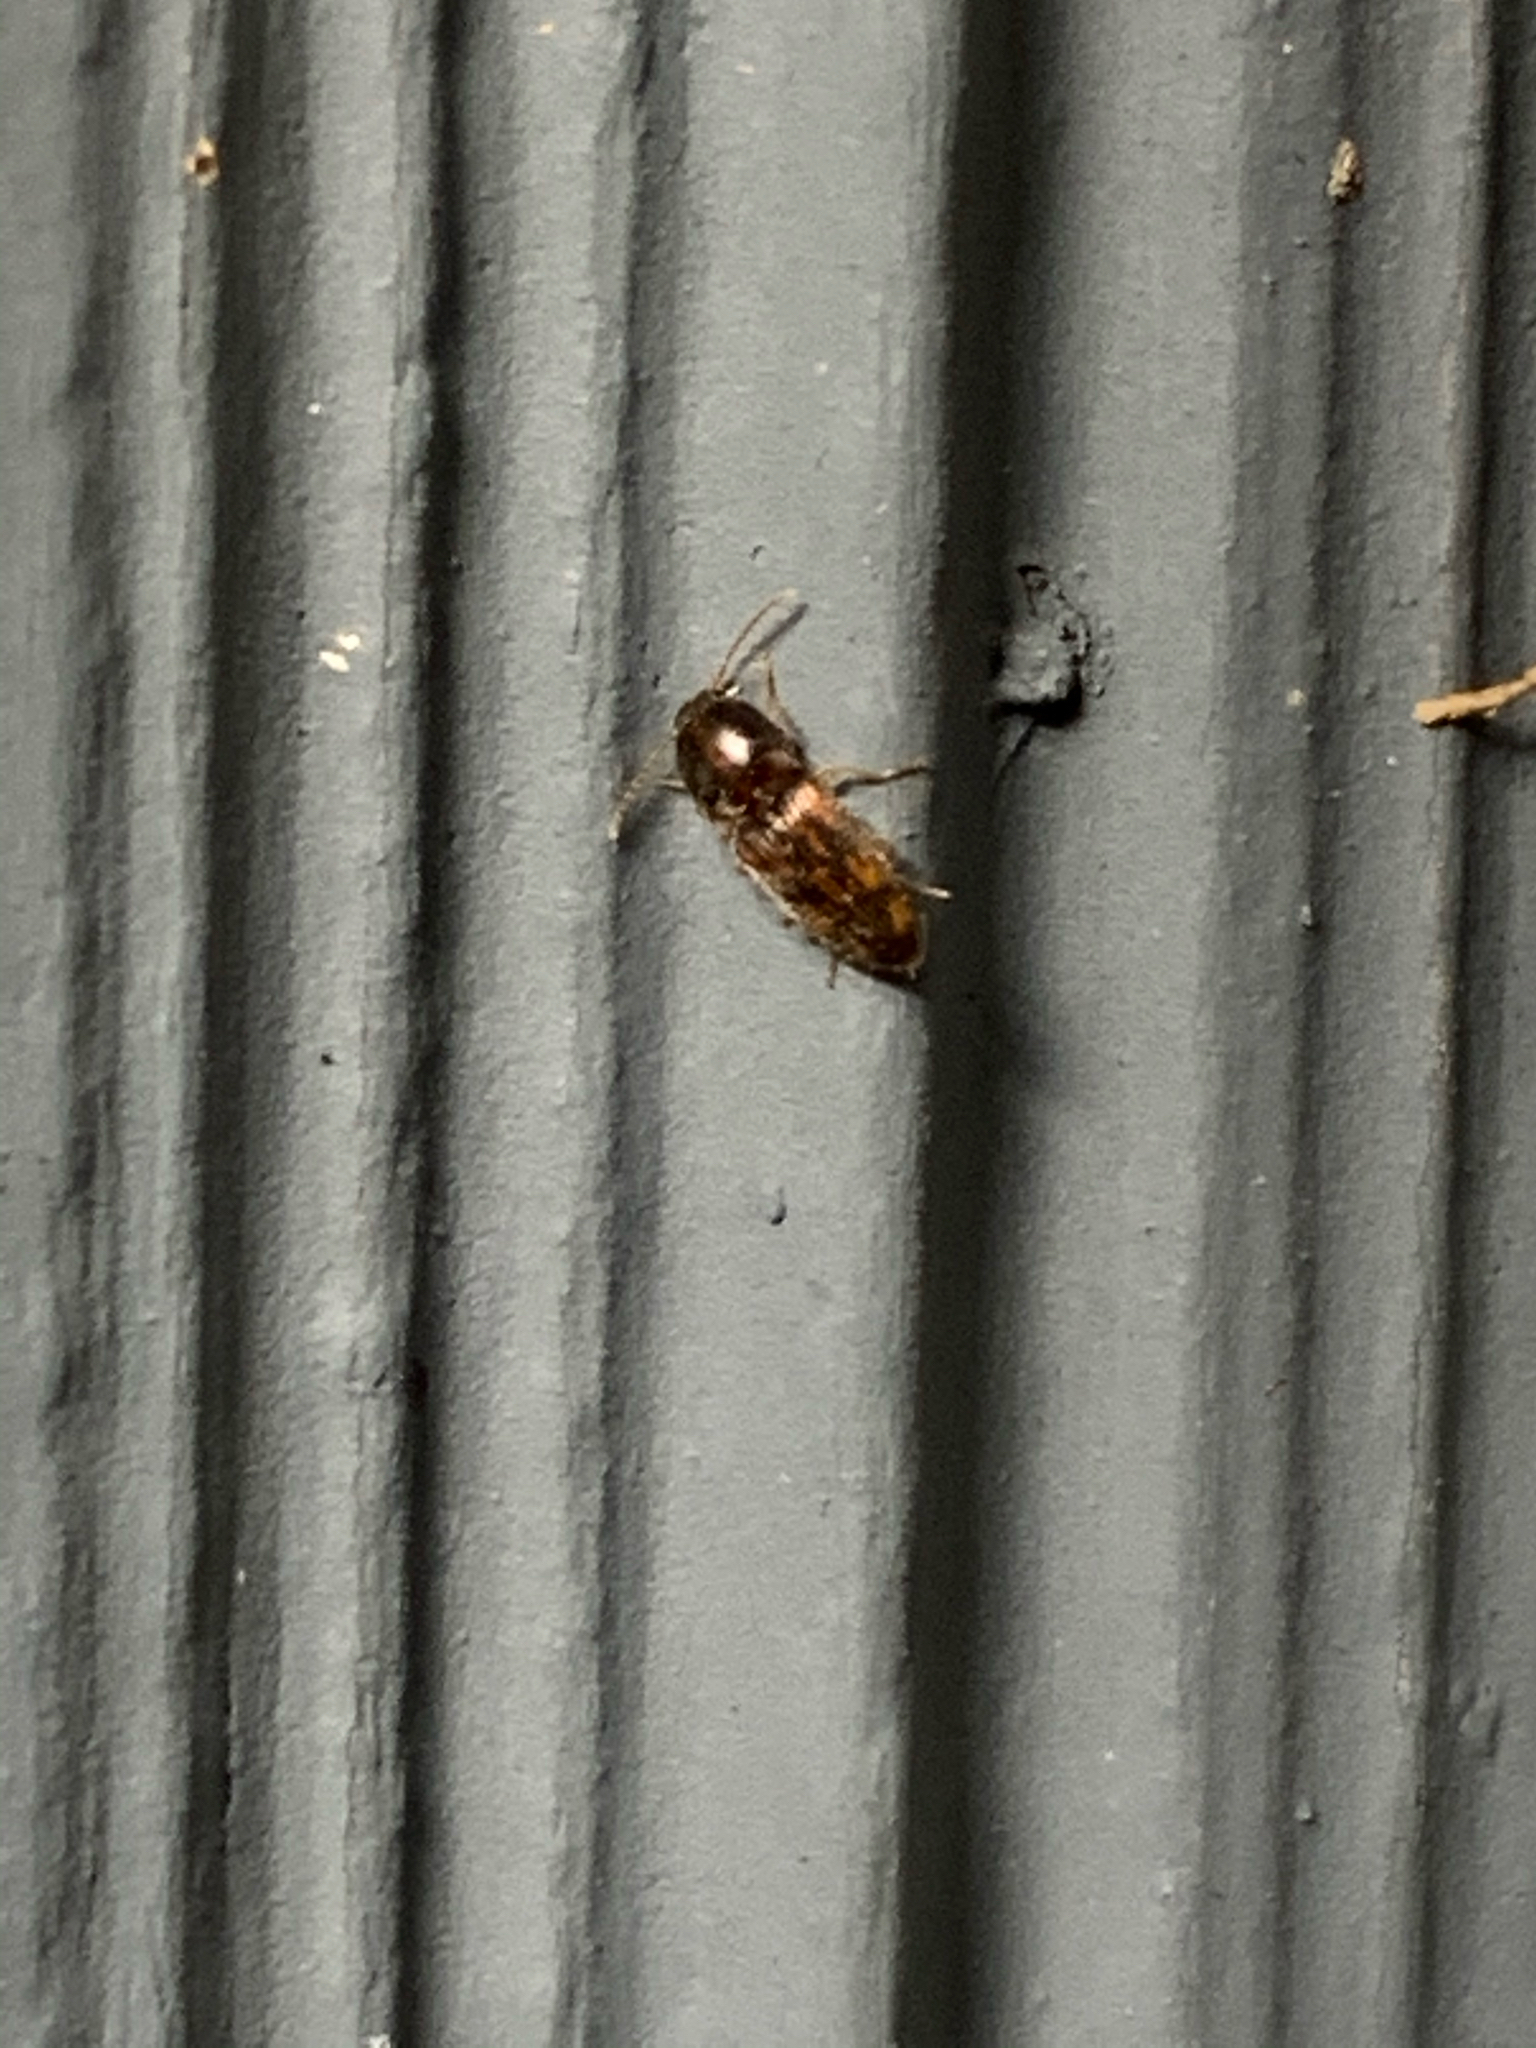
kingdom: Animalia
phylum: Arthropoda
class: Insecta
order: Coleoptera
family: Elateridae
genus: Monocrepidius
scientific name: Monocrepidius bellus
